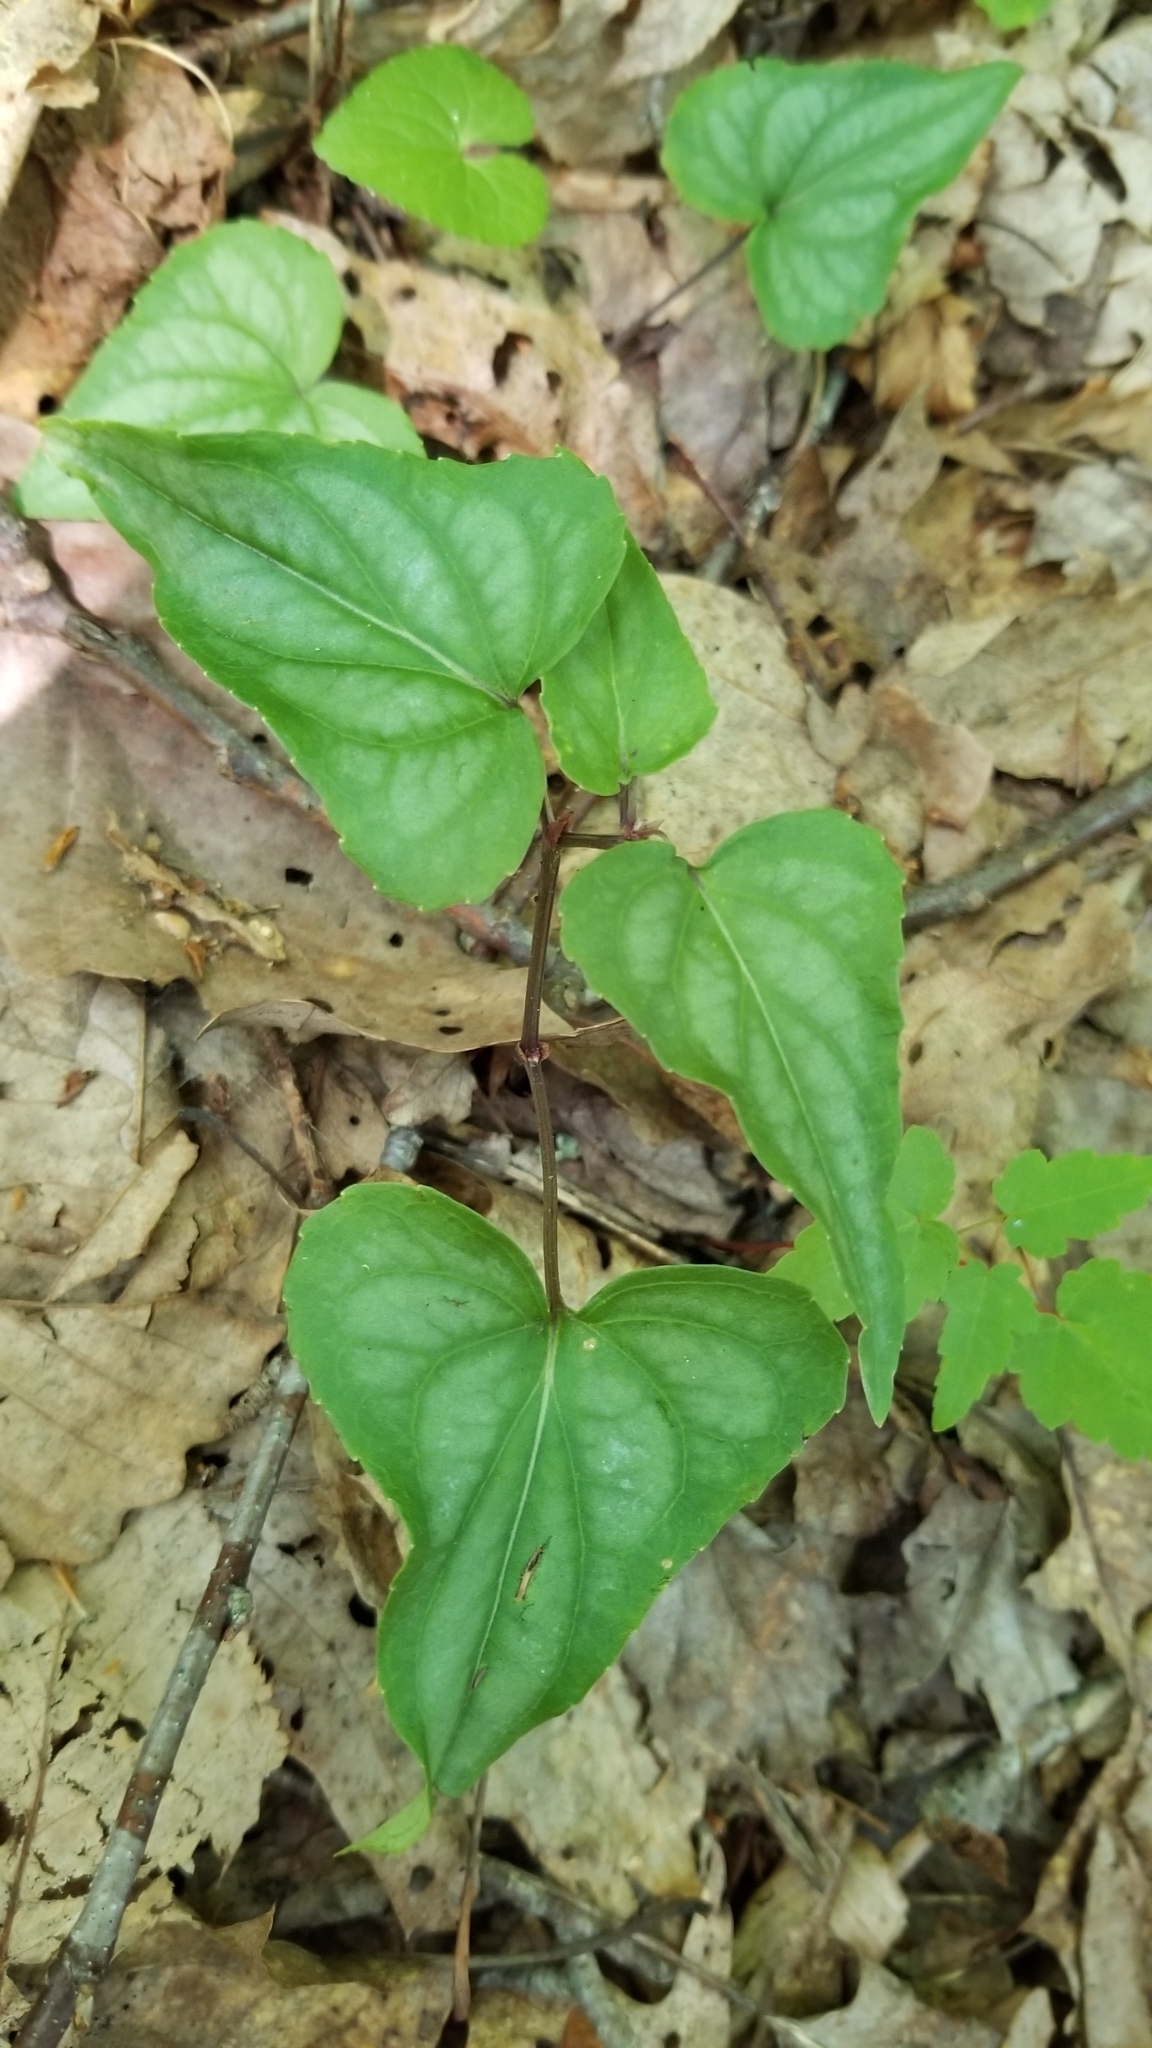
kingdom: Plantae
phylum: Tracheophyta
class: Magnoliopsida
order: Malpighiales
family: Violaceae
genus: Viola
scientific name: Viola hastata
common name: Spear-leaf violet
